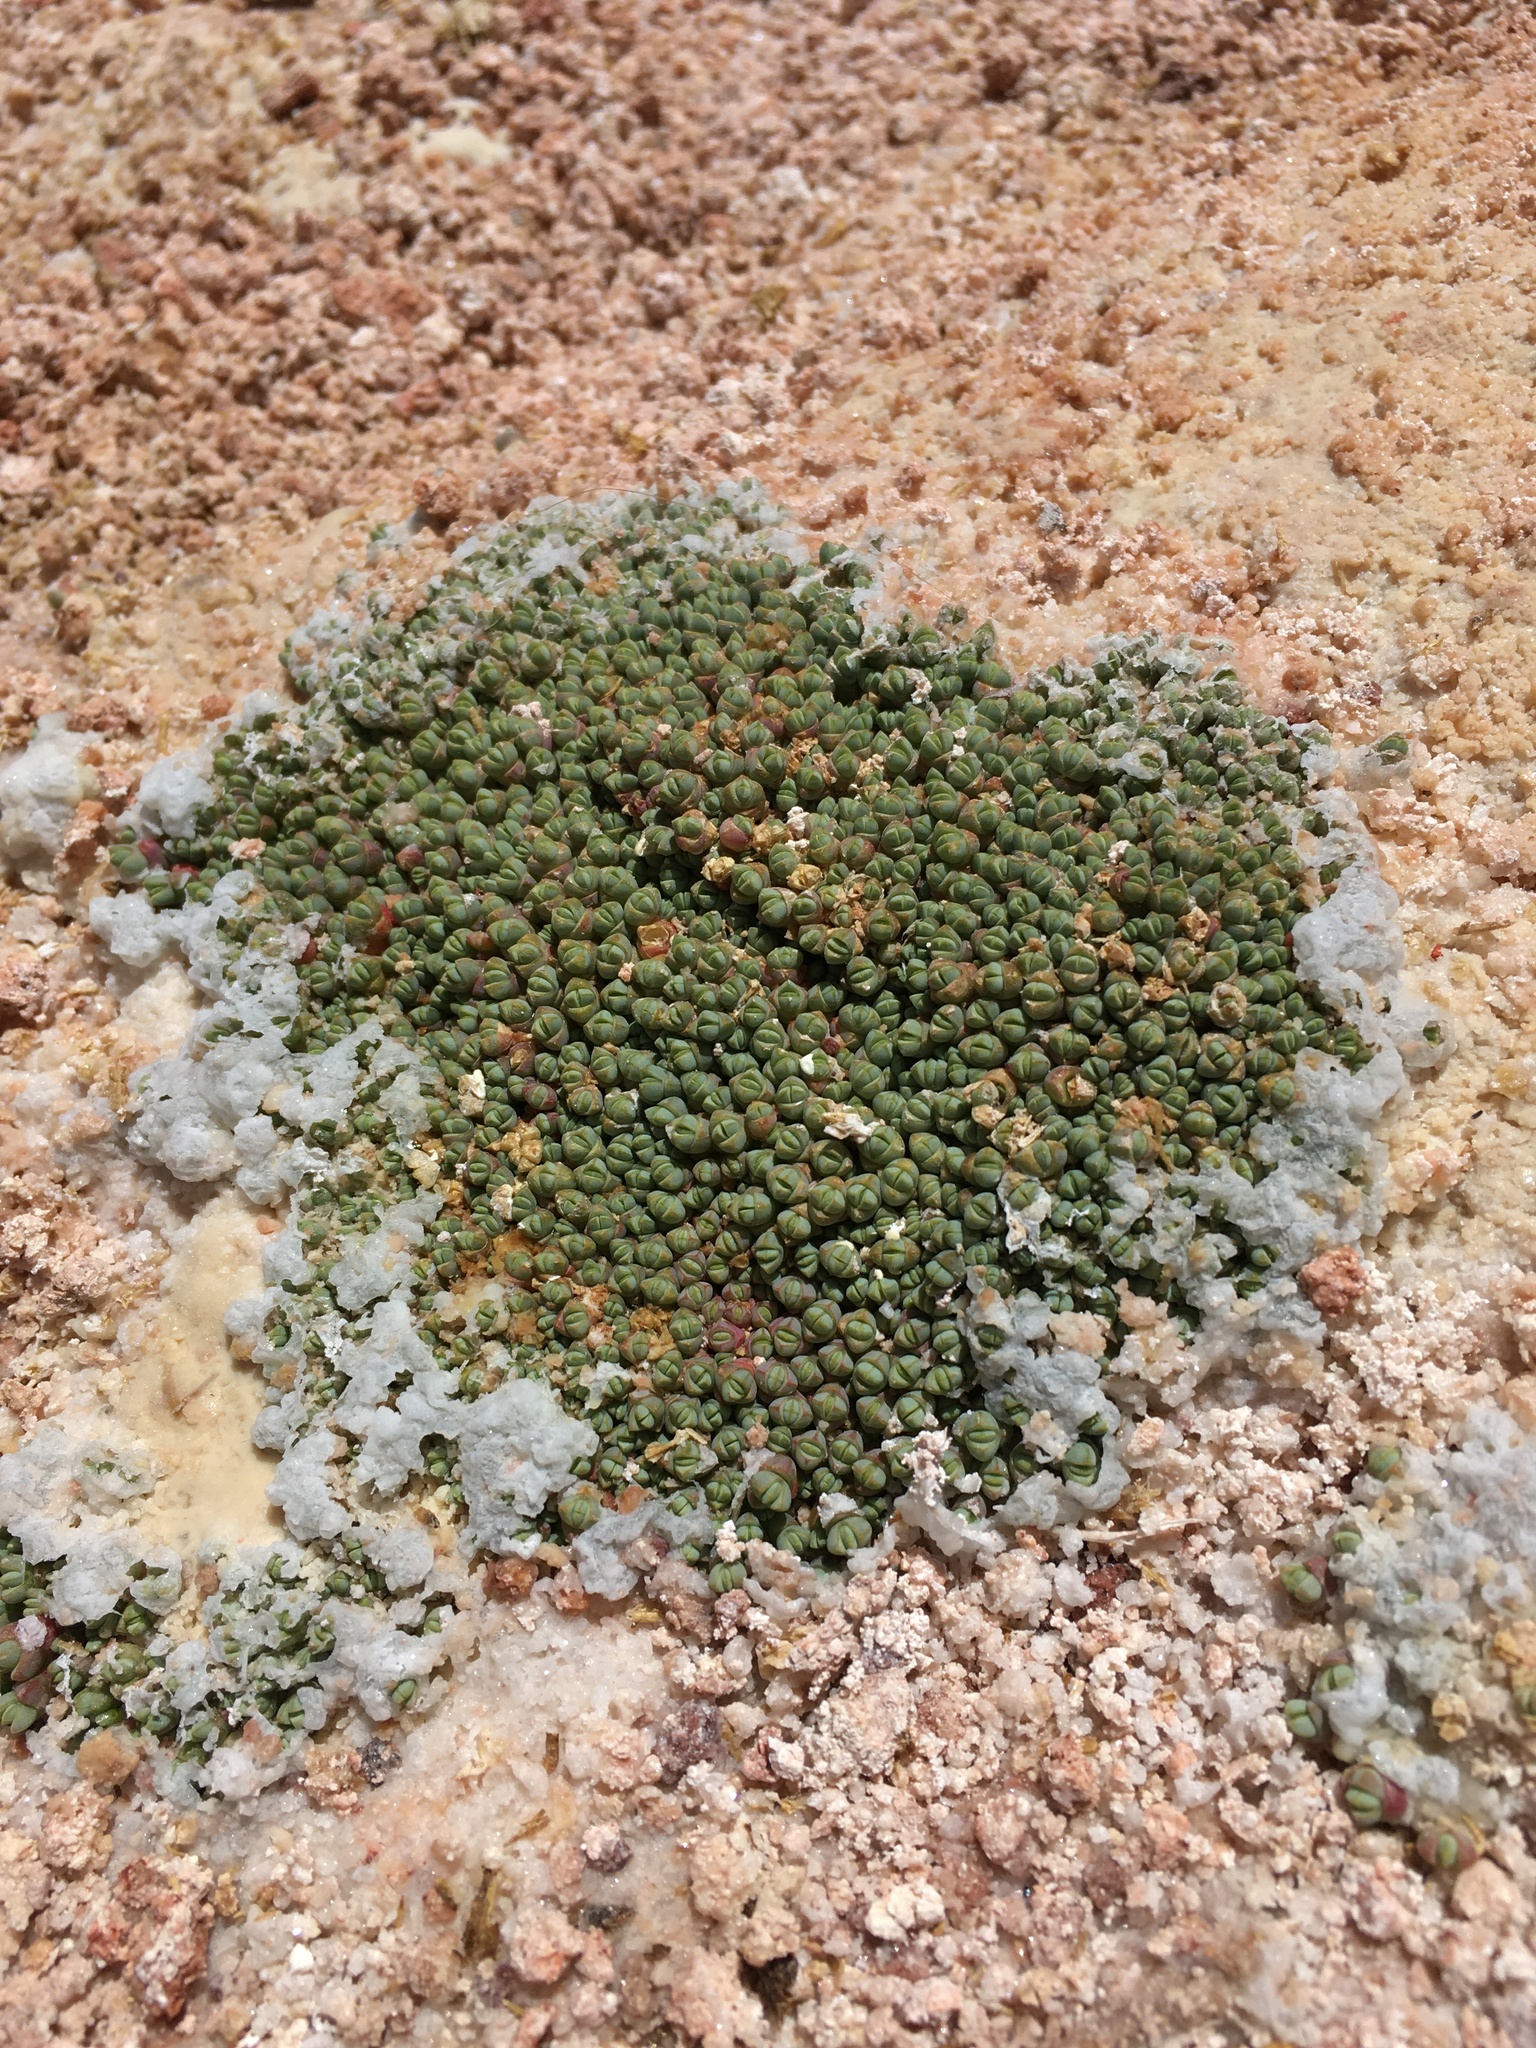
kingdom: Plantae
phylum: Tracheophyta
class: Magnoliopsida
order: Caryophyllales
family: Amaranthaceae
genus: Salicornia
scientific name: Salicornia pulvinata
